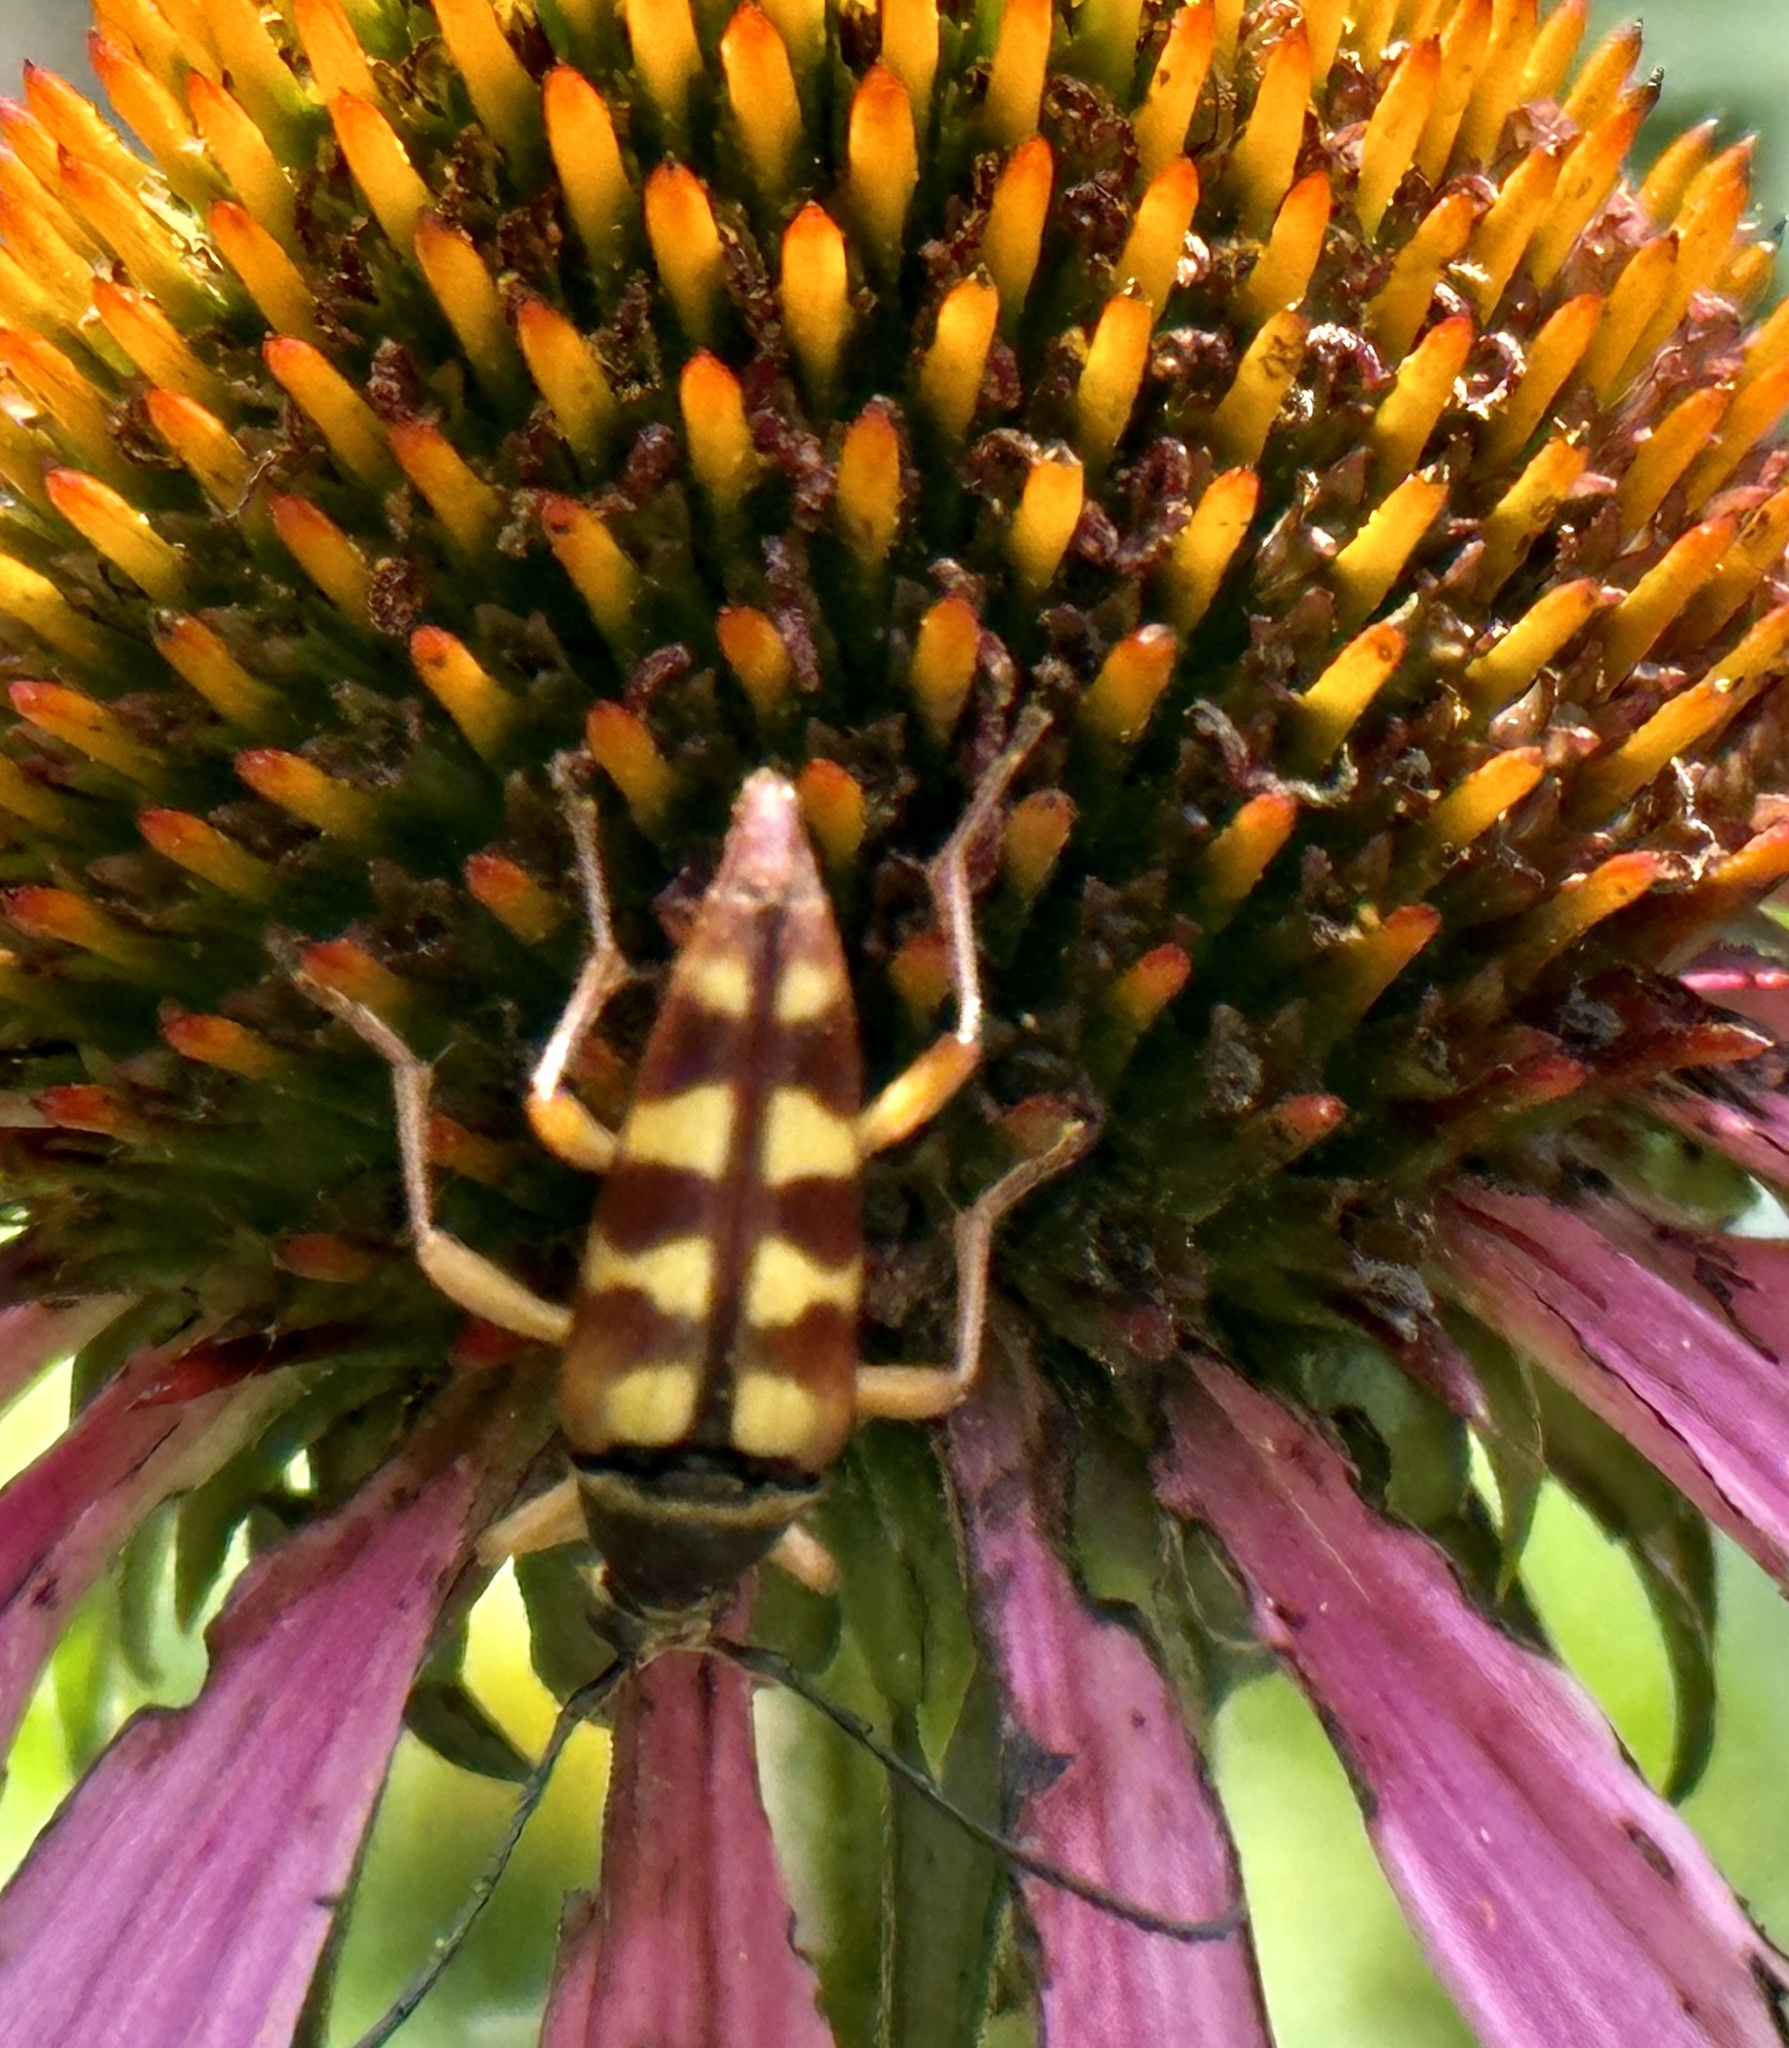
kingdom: Animalia
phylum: Arthropoda
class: Insecta
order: Coleoptera
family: Cerambycidae
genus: Typocerus
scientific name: Typocerus velutinus
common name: Banded longhorn beetle
